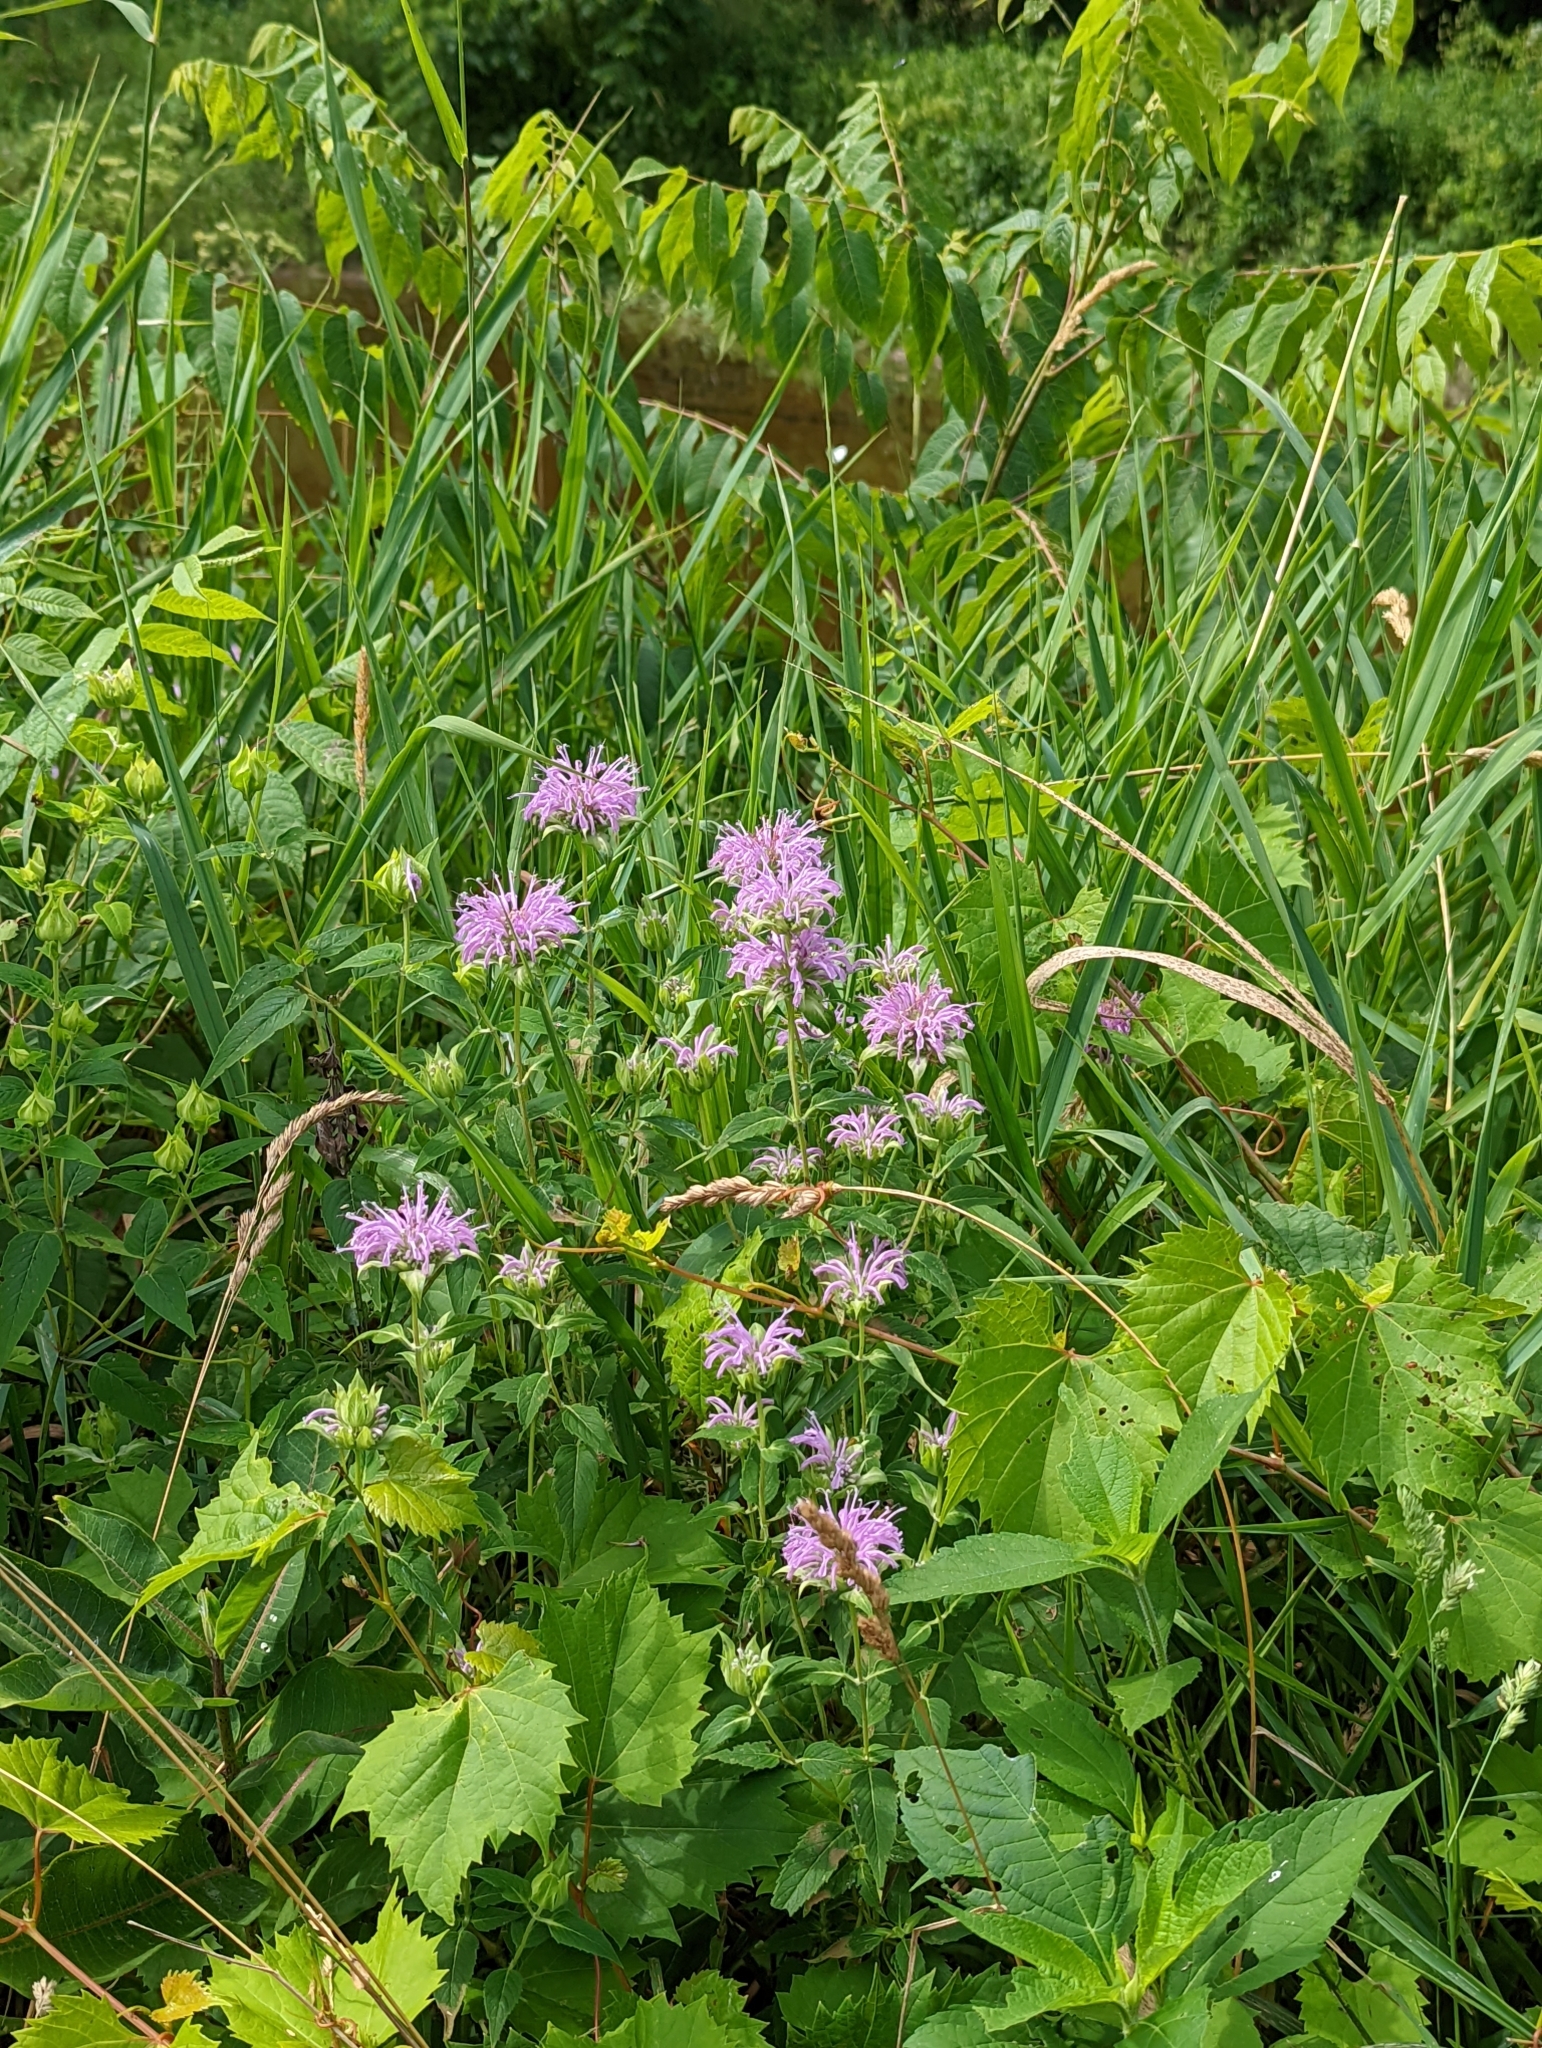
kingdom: Plantae
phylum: Tracheophyta
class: Magnoliopsida
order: Lamiales
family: Lamiaceae
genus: Monarda
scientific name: Monarda fistulosa
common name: Purple beebalm
